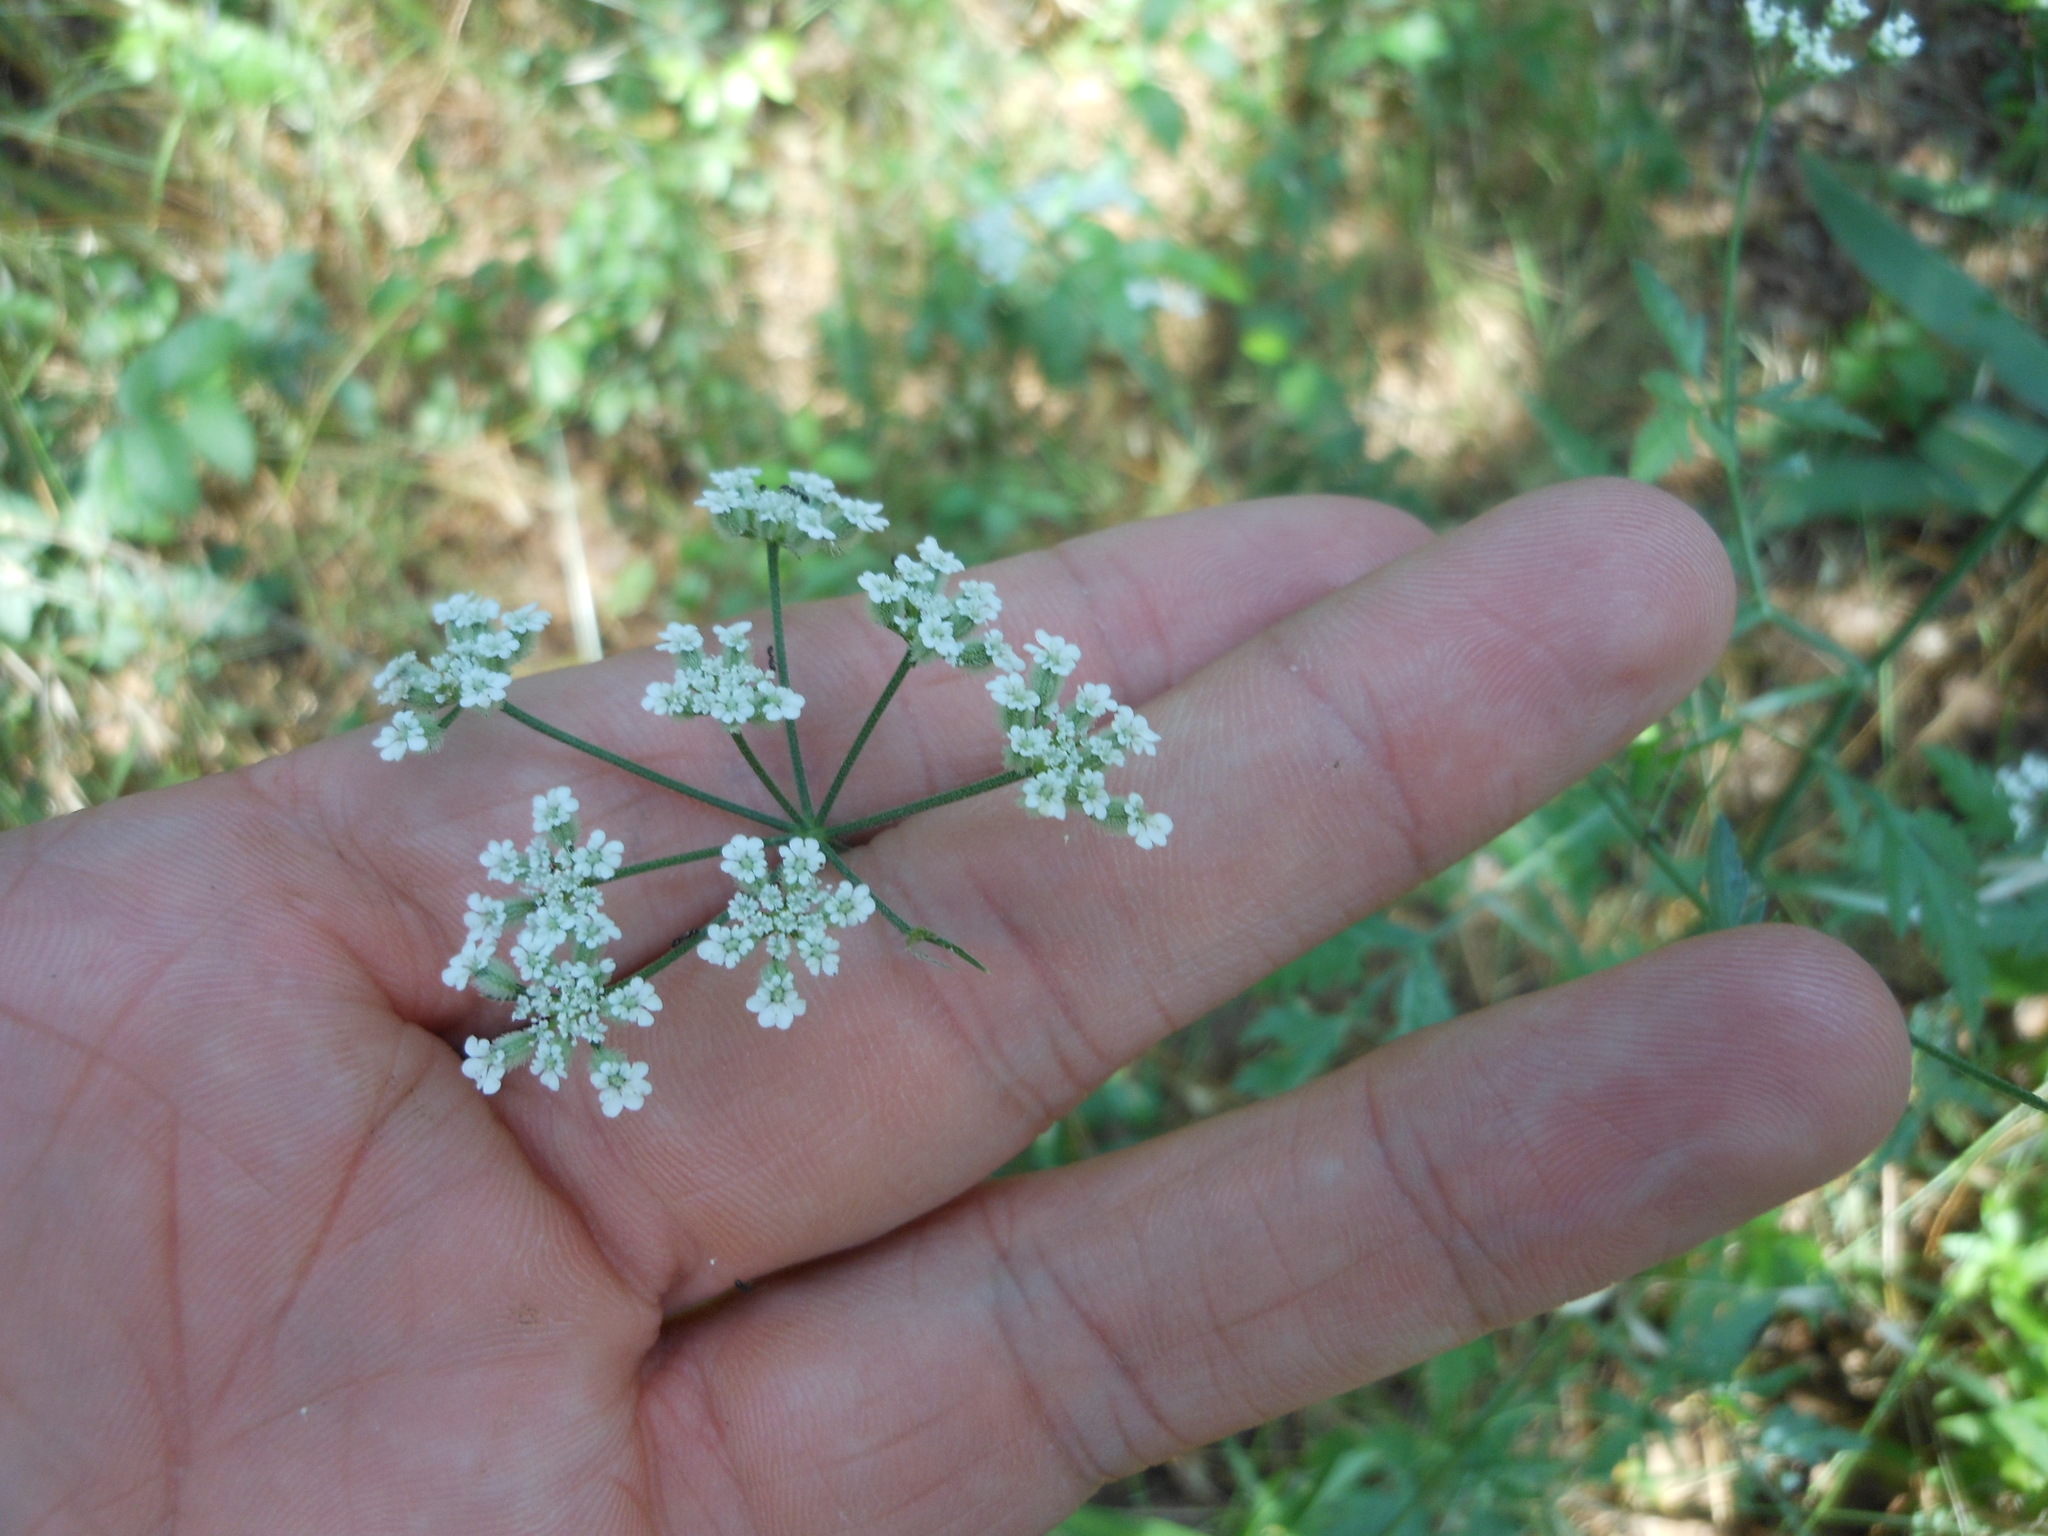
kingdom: Plantae
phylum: Tracheophyta
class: Magnoliopsida
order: Apiales
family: Apiaceae
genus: Torilis
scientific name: Torilis arvensis
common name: Spreading hedge-parsley
